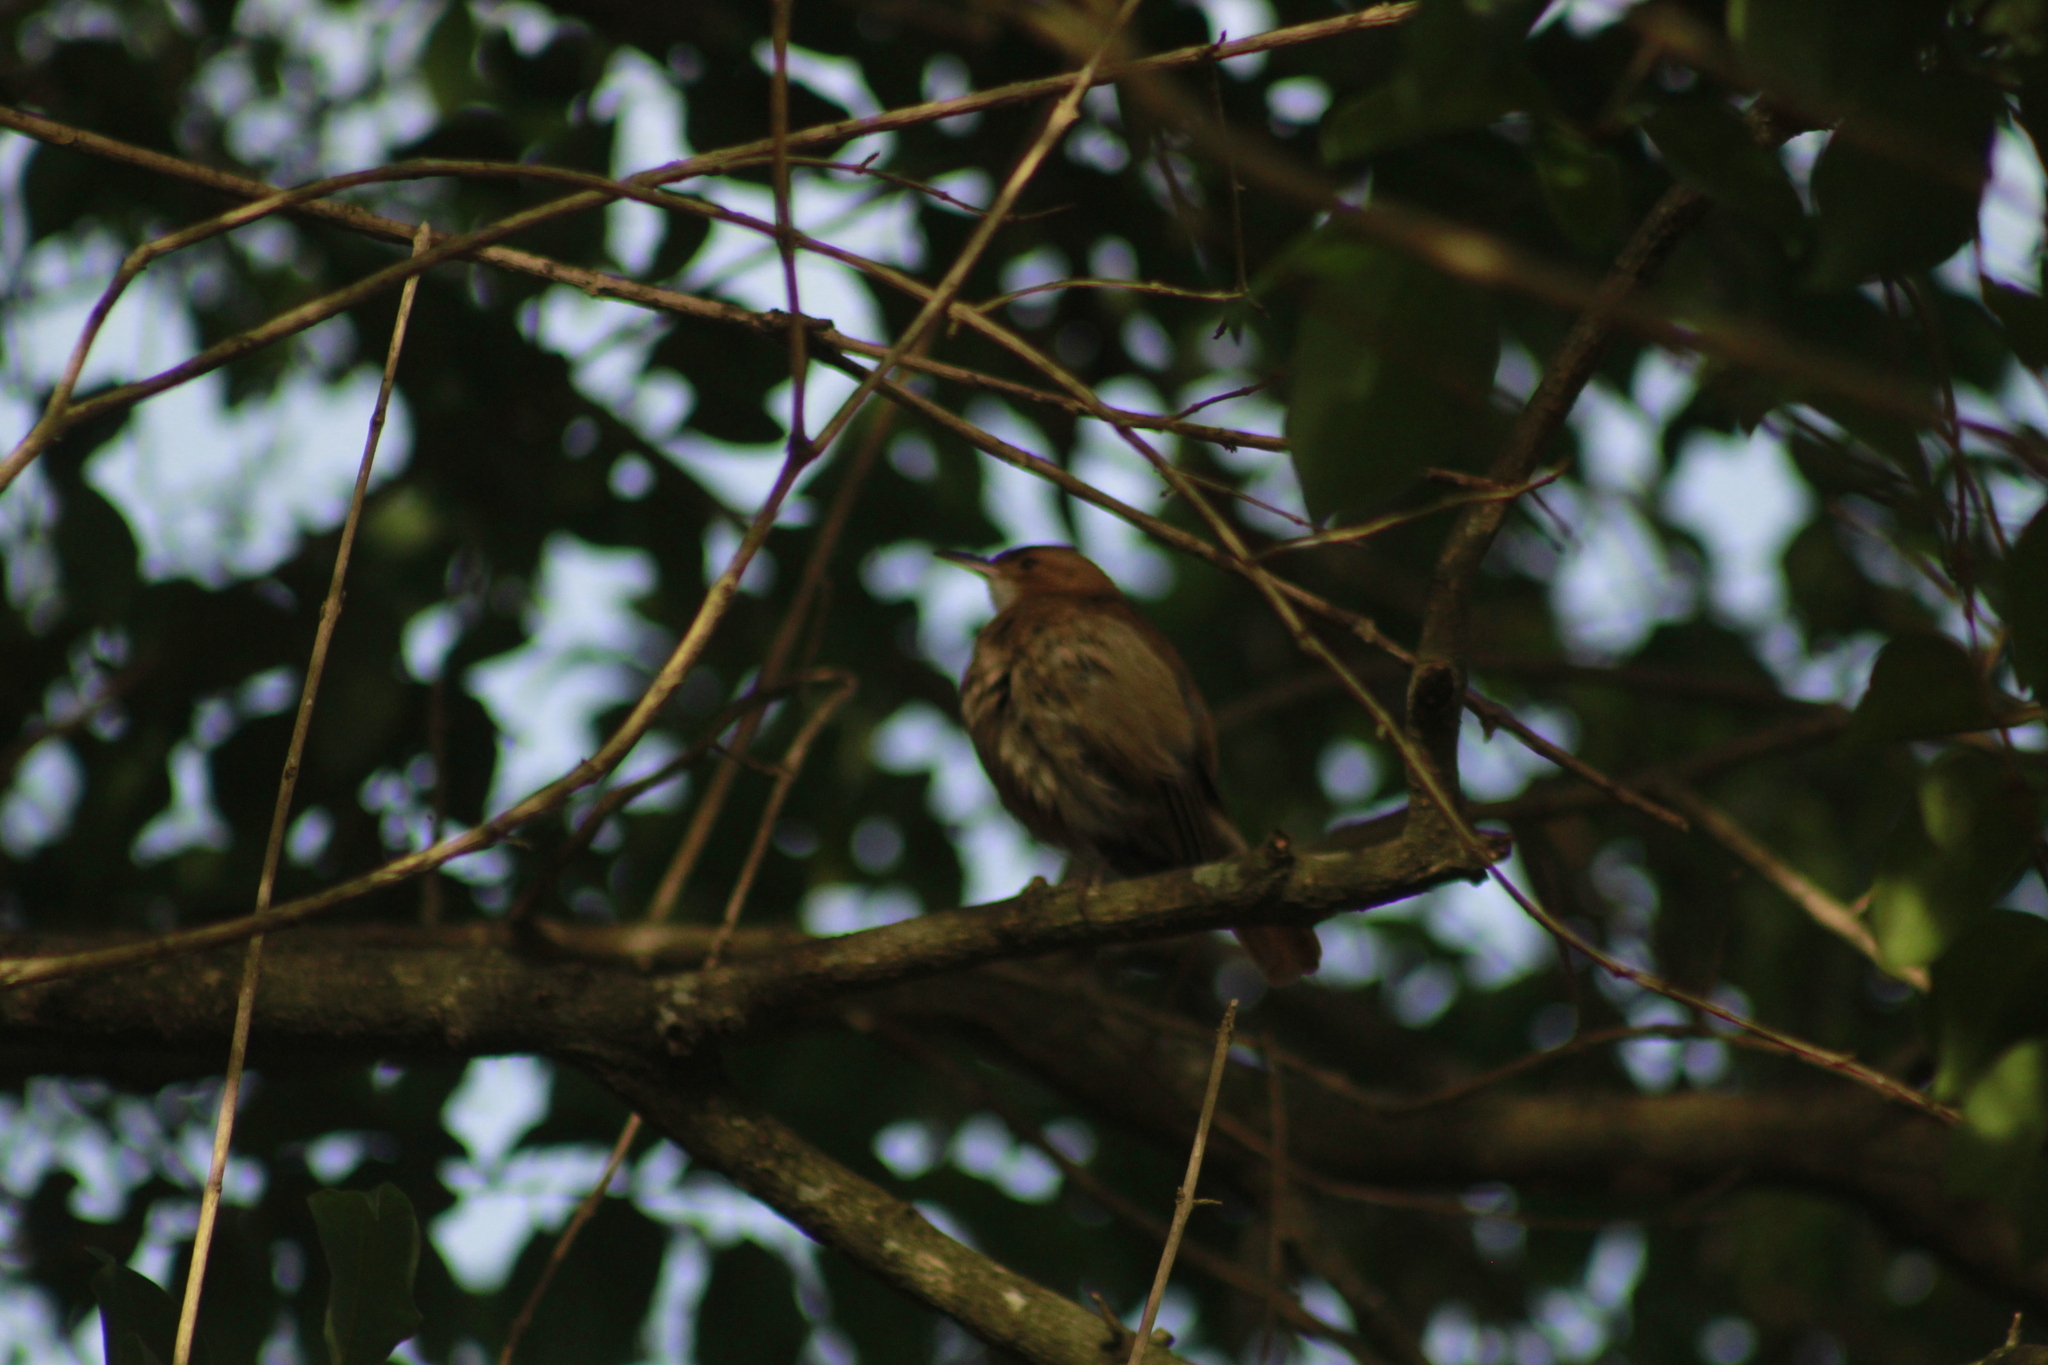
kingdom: Animalia
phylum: Chordata
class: Aves
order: Passeriformes
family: Furnariidae
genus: Furnarius
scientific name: Furnarius rufus
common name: Rufous hornero
